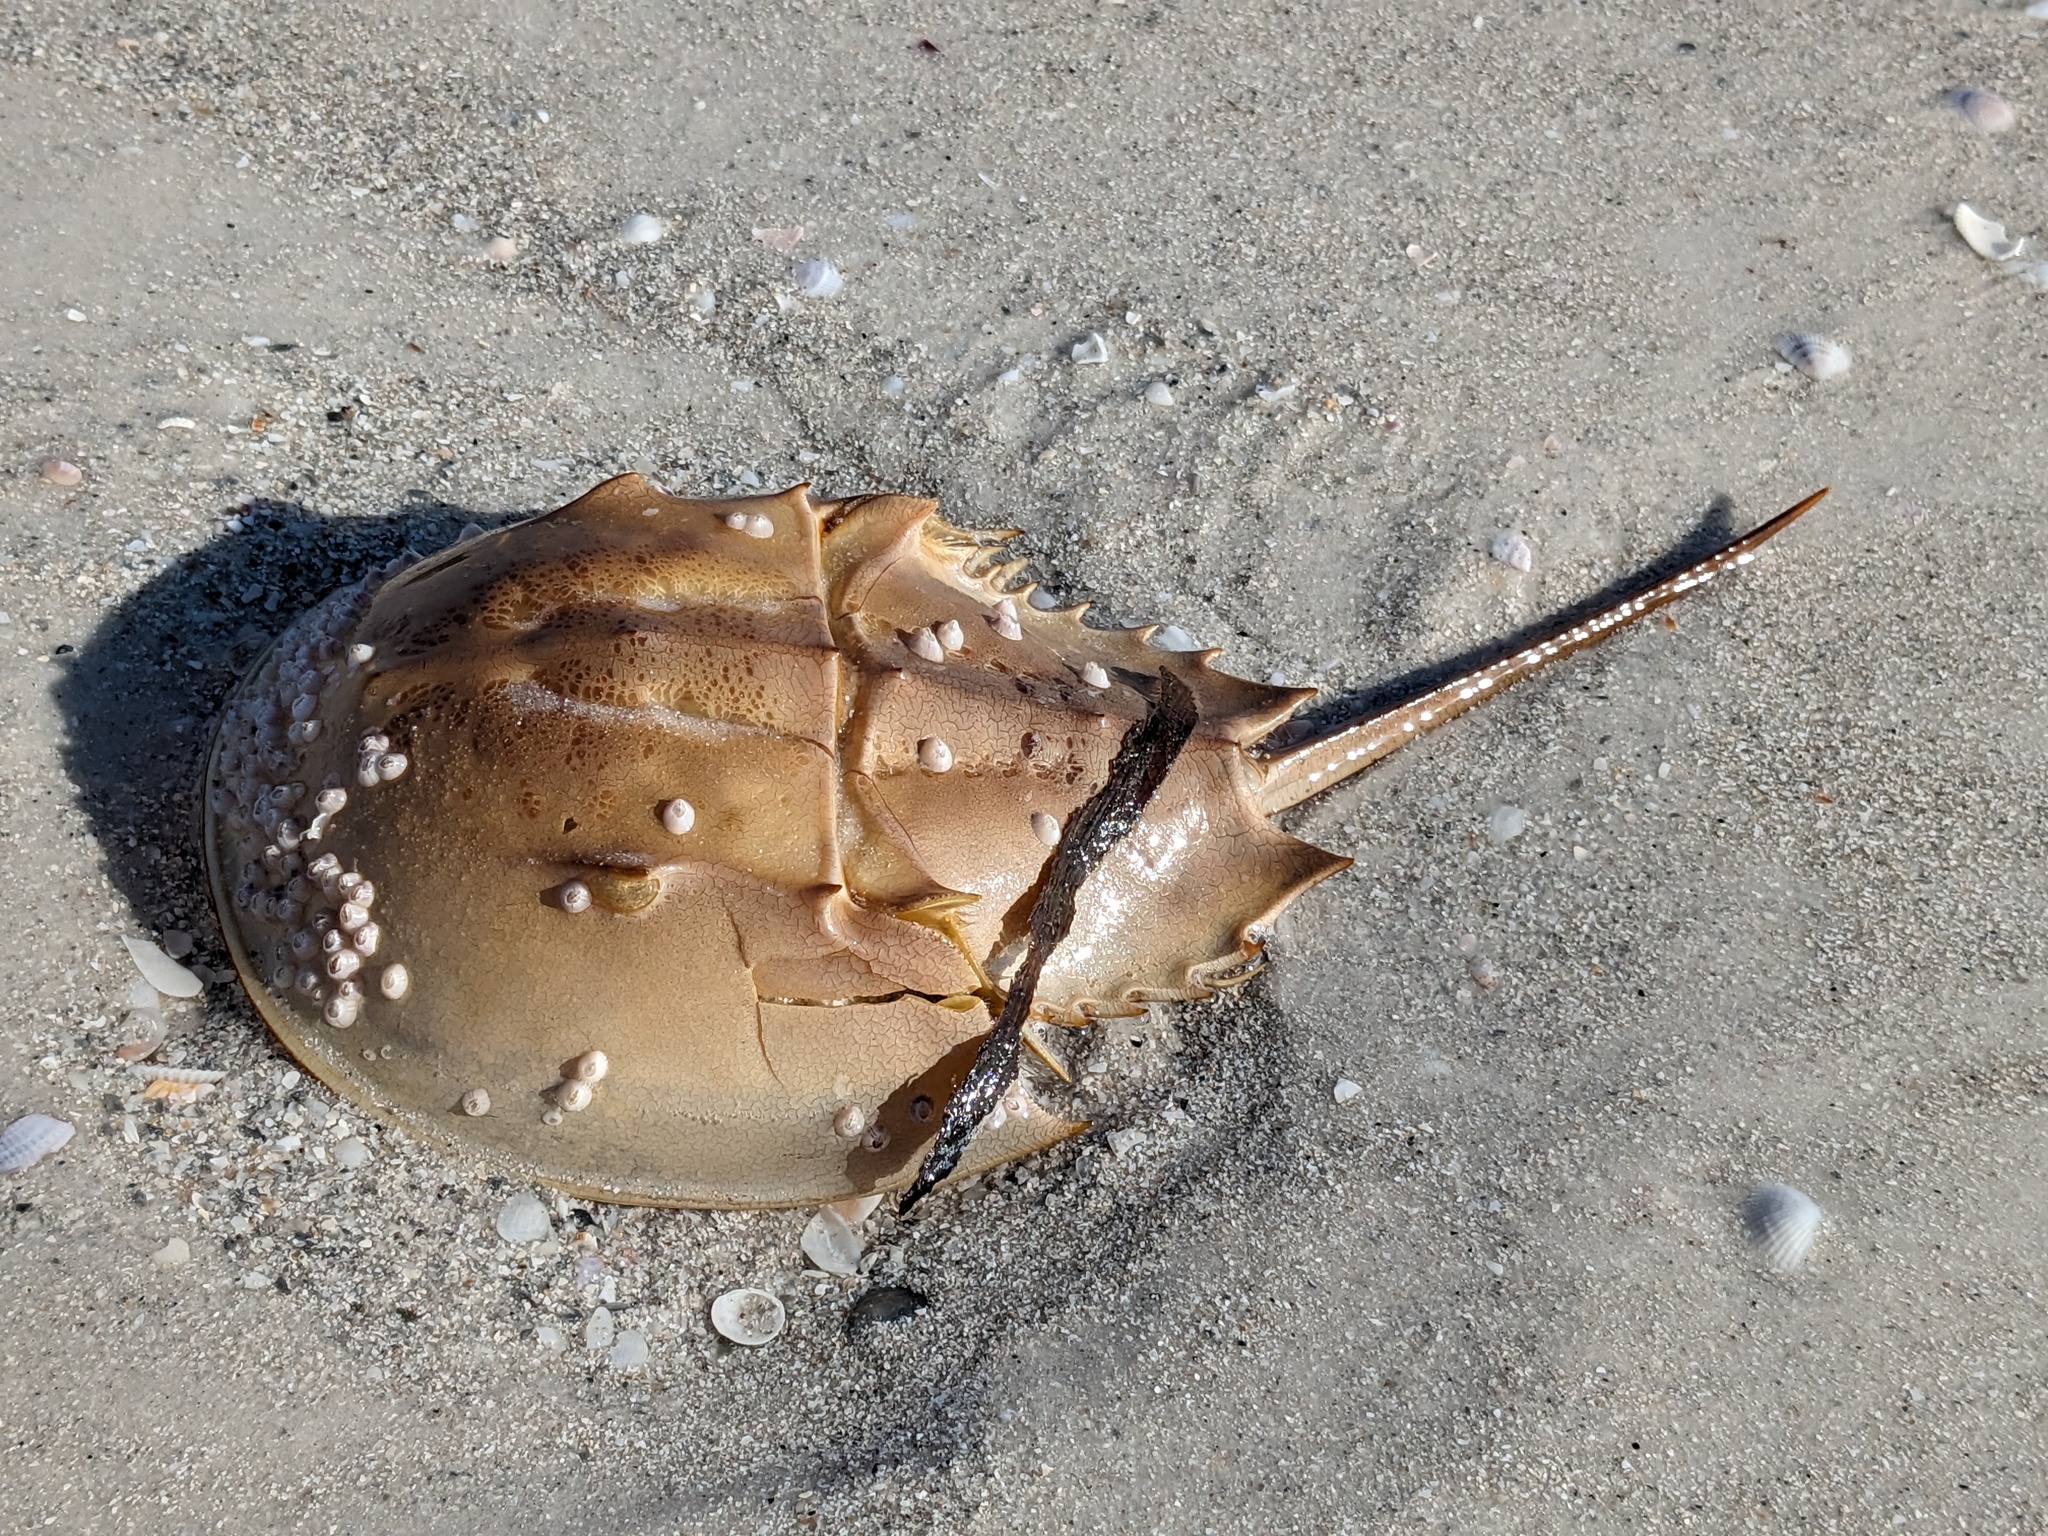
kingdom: Animalia
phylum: Arthropoda
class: Merostomata
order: Xiphosurida
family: Limulidae
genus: Limulus
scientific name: Limulus polyphemus
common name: Horseshoe crab
